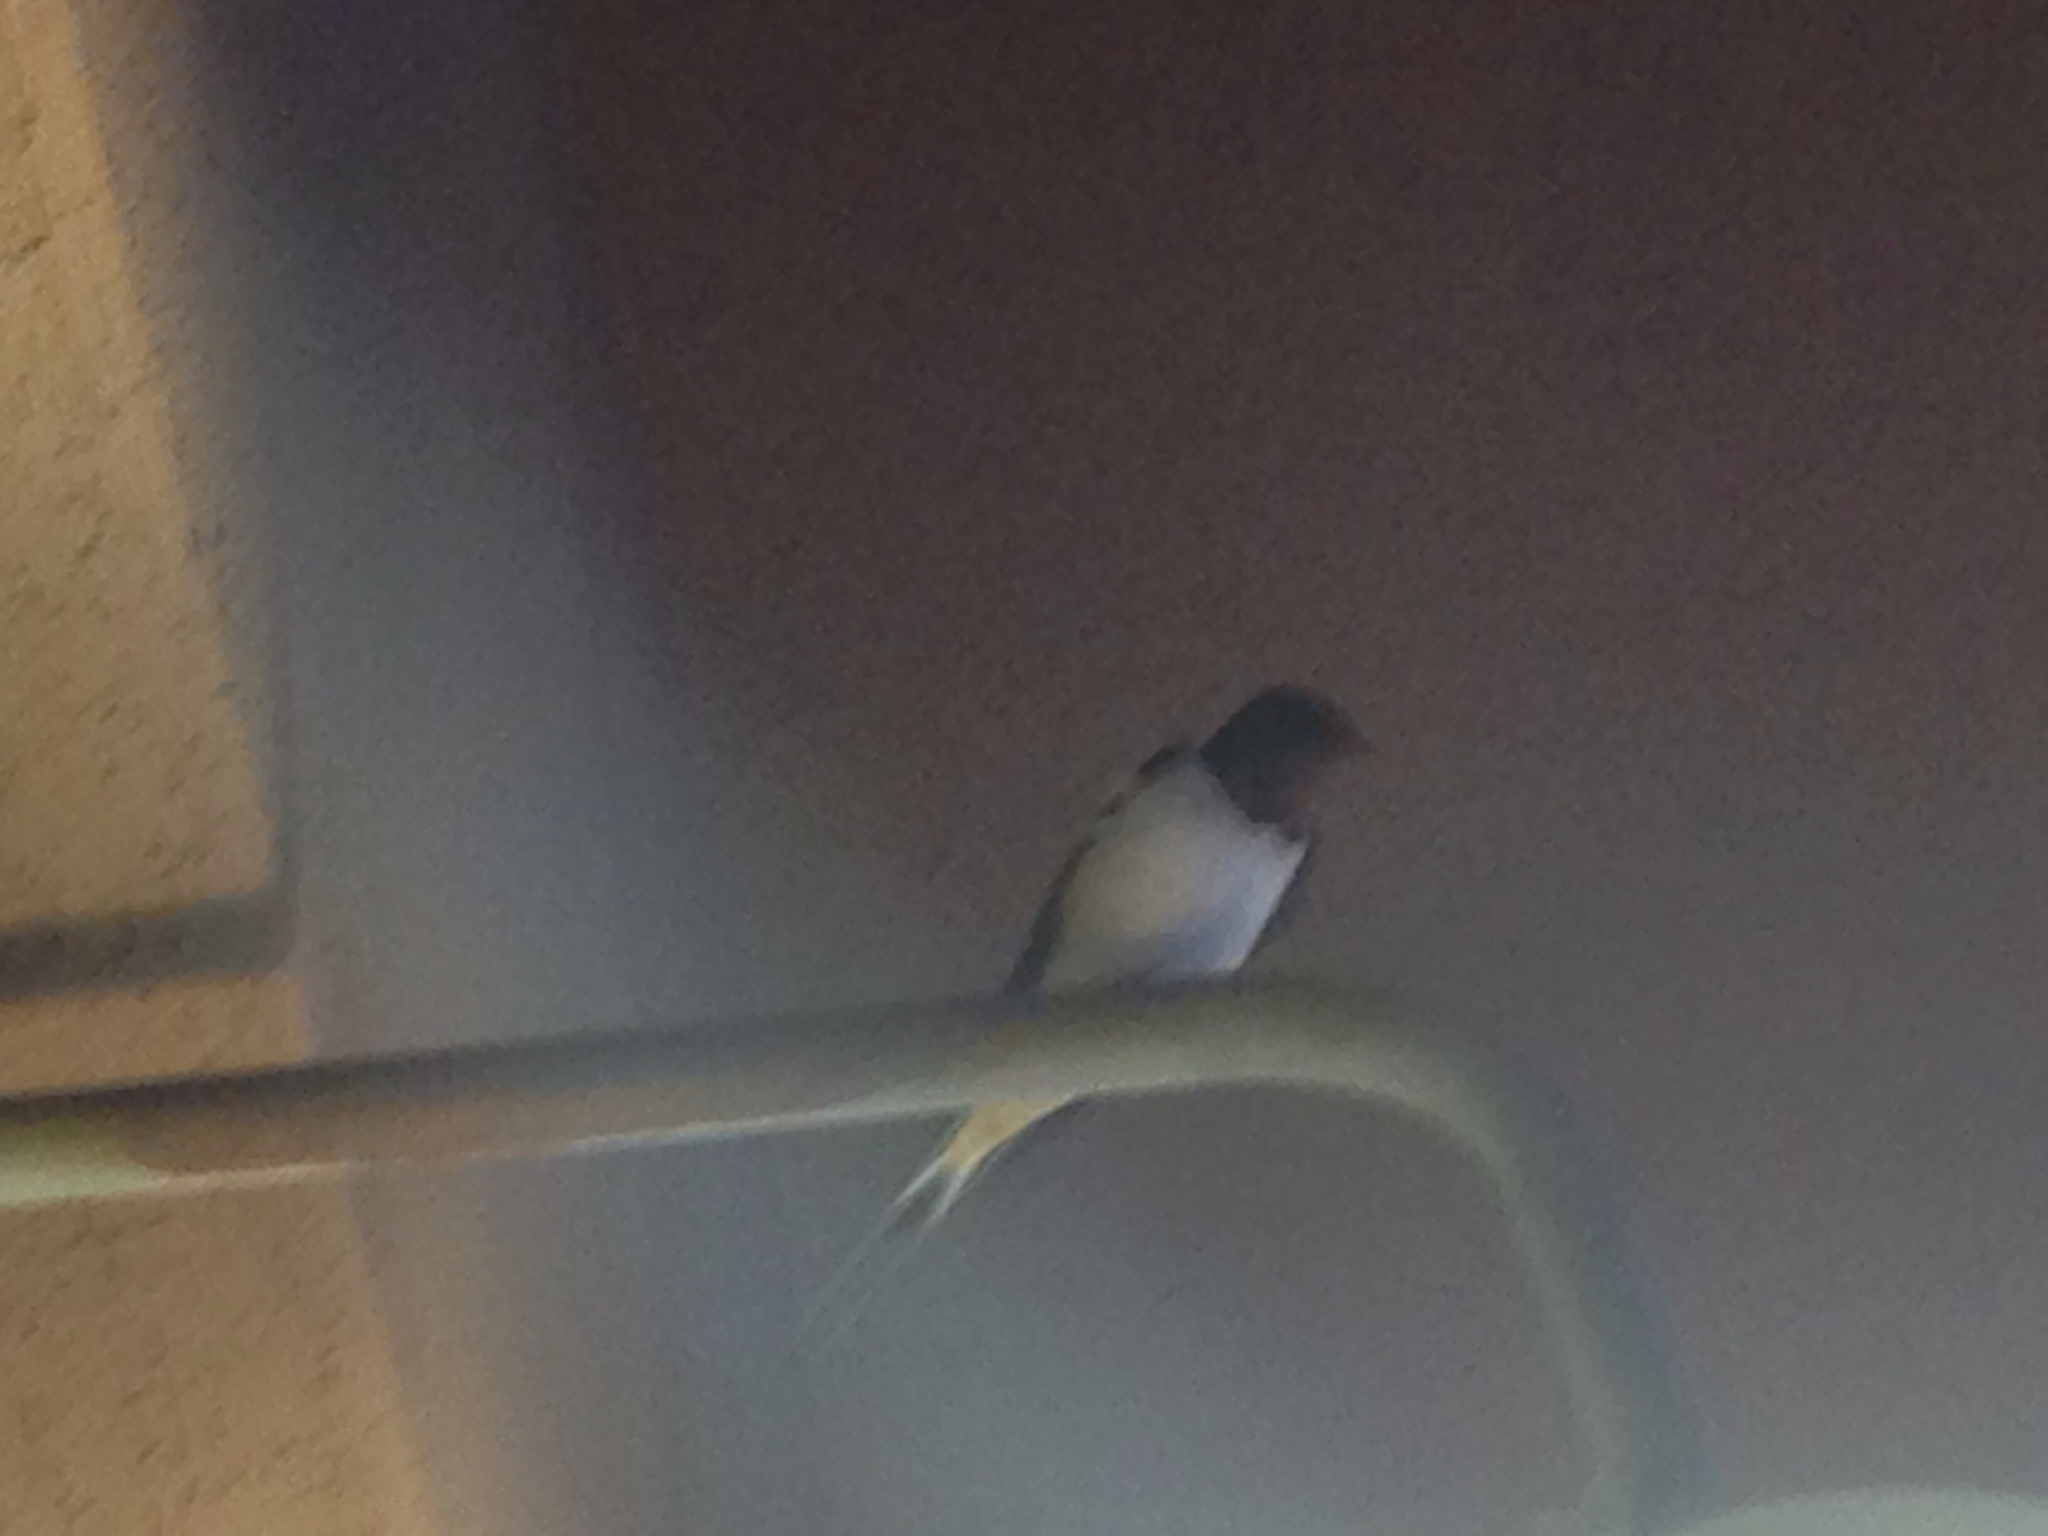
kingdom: Animalia
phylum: Chordata
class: Aves
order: Passeriformes
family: Hirundinidae
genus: Hirundo
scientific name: Hirundo rustica
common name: Barn swallow
